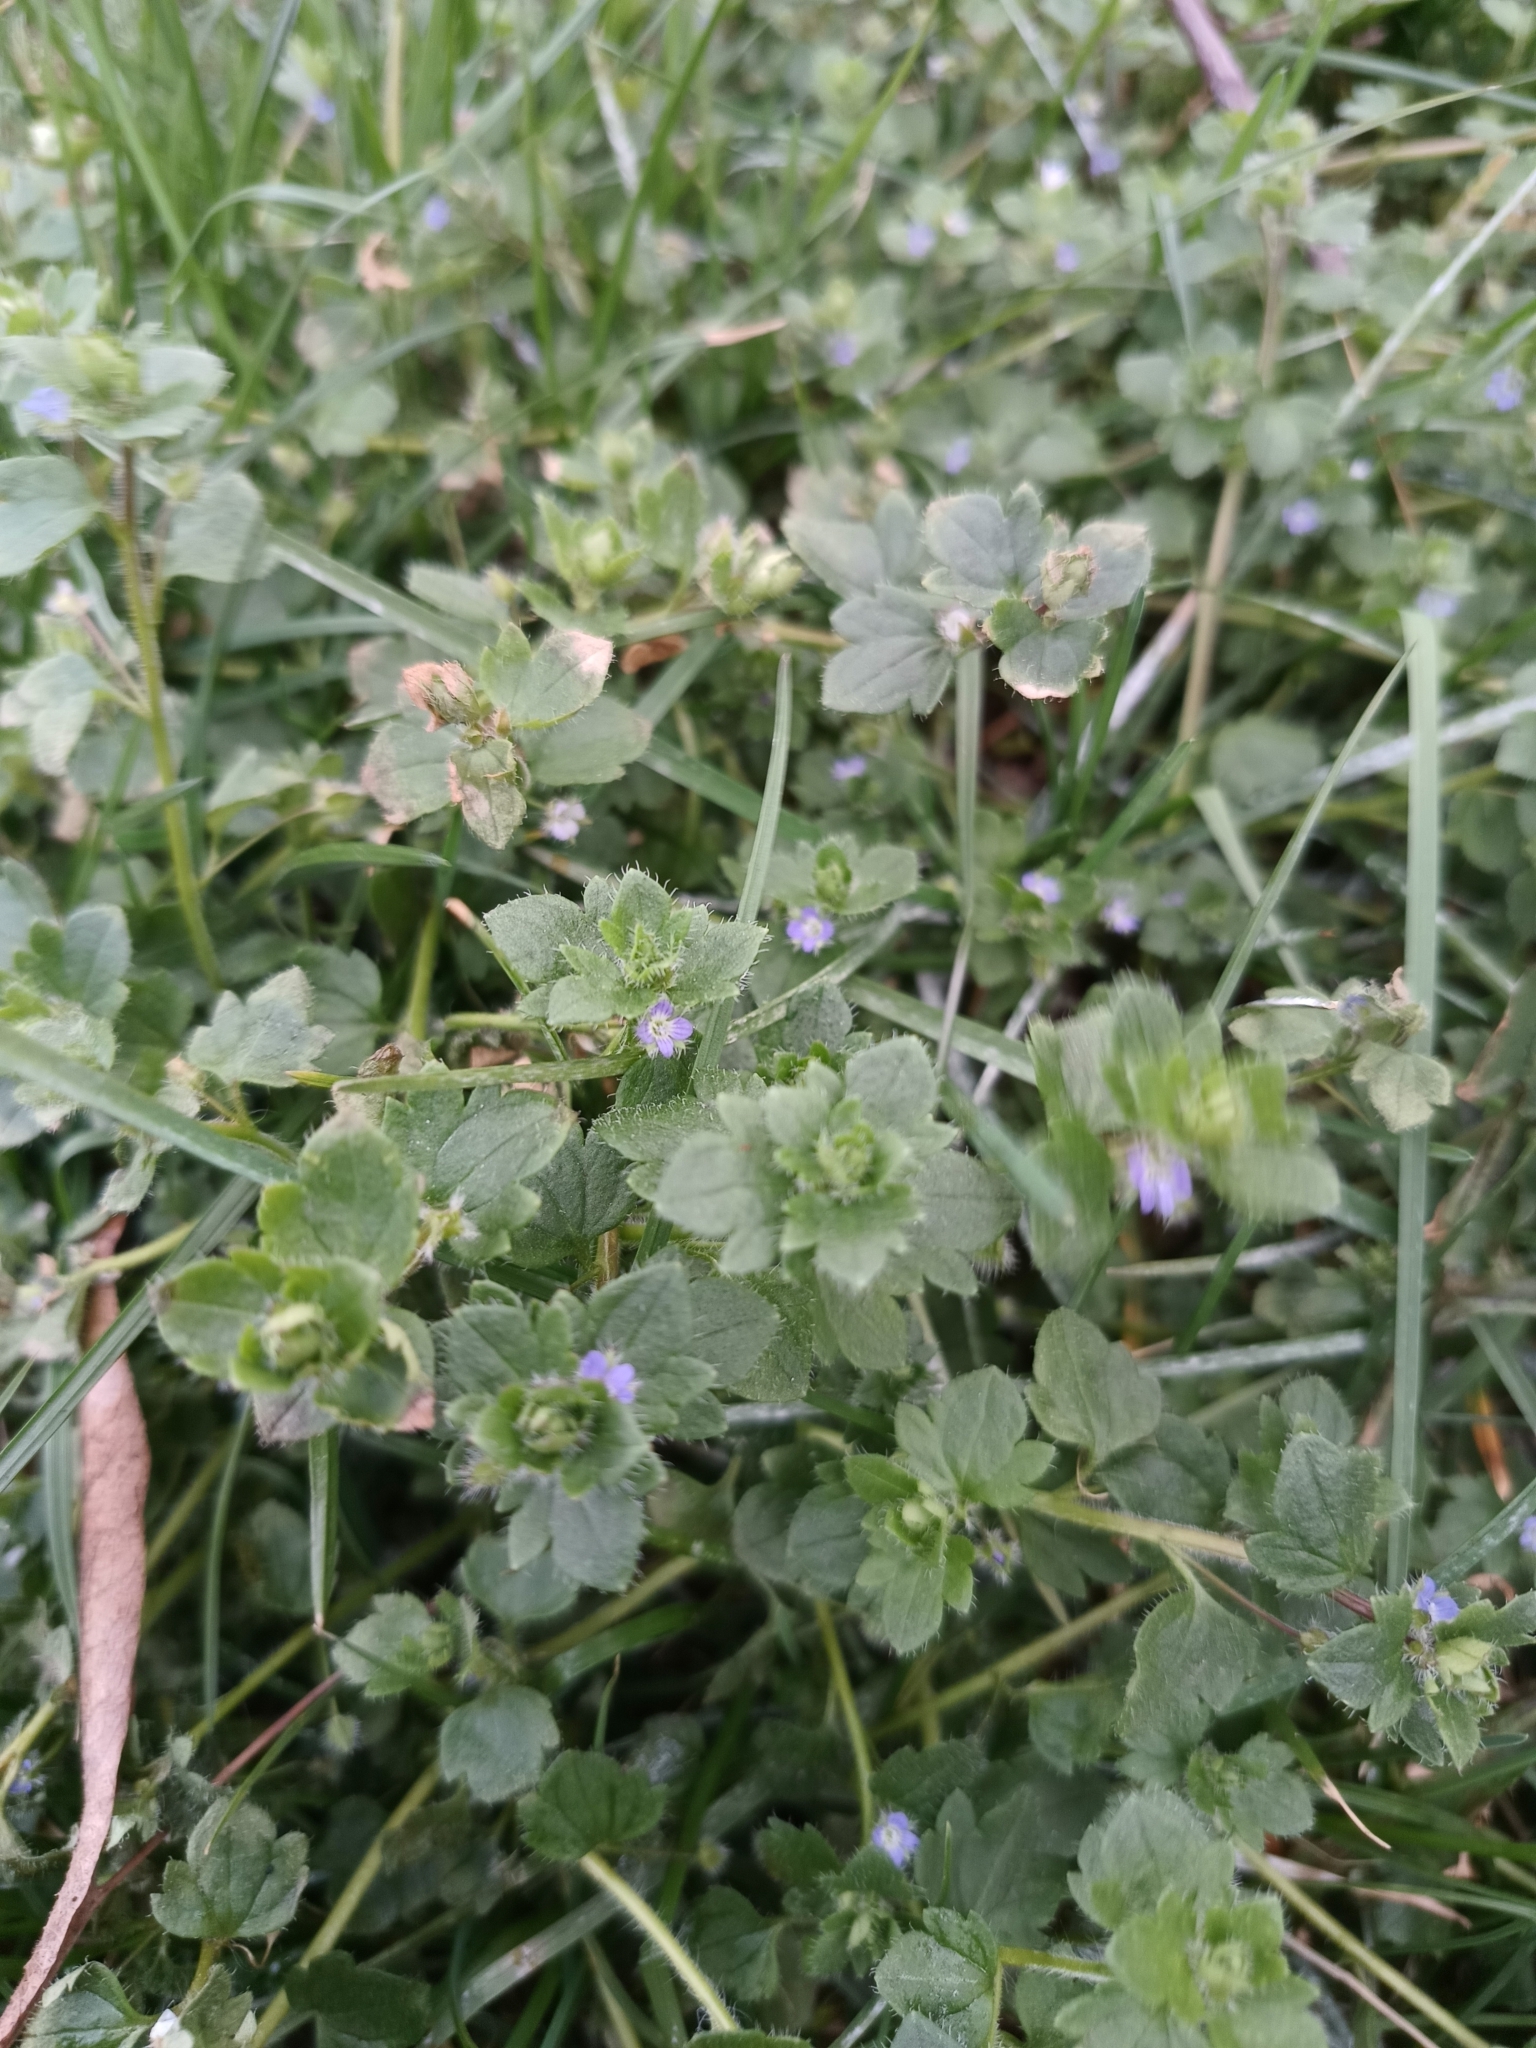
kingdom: Plantae
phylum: Tracheophyta
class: Magnoliopsida
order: Lamiales
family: Plantaginaceae
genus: Veronica
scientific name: Veronica hederifolia
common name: Ivy-leaved speedwell
